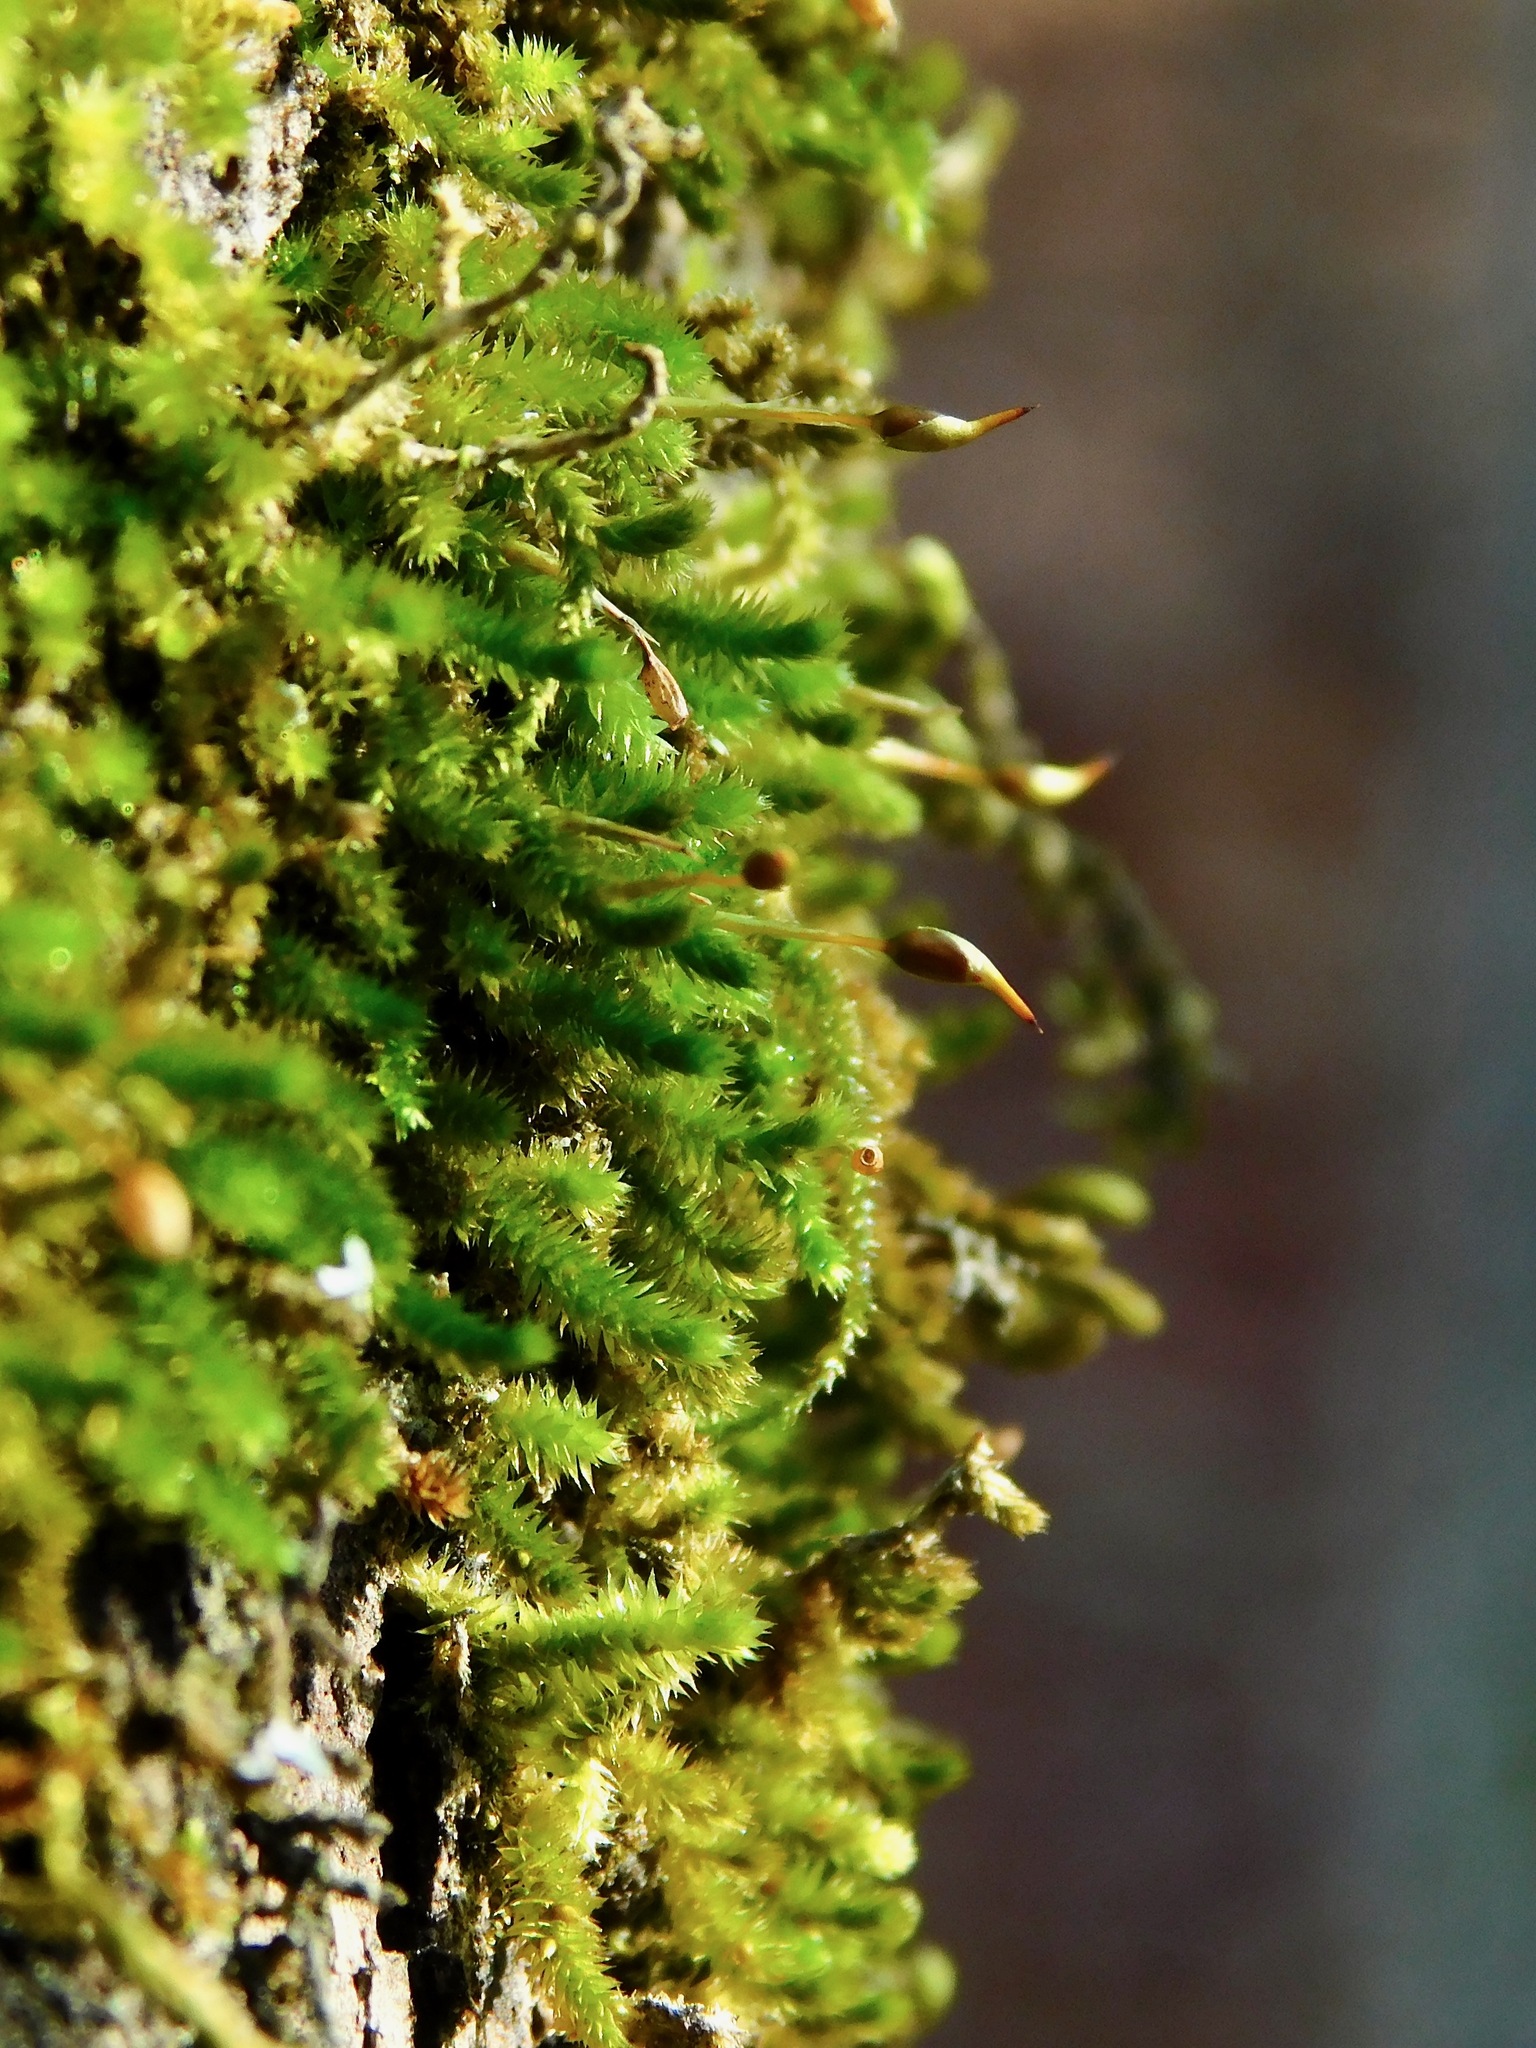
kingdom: Plantae
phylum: Bryophyta
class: Bryopsida
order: Hypnales
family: Leucodontaceae
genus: Leucodon
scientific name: Leucodon julaceus
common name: Smooth hook moss
